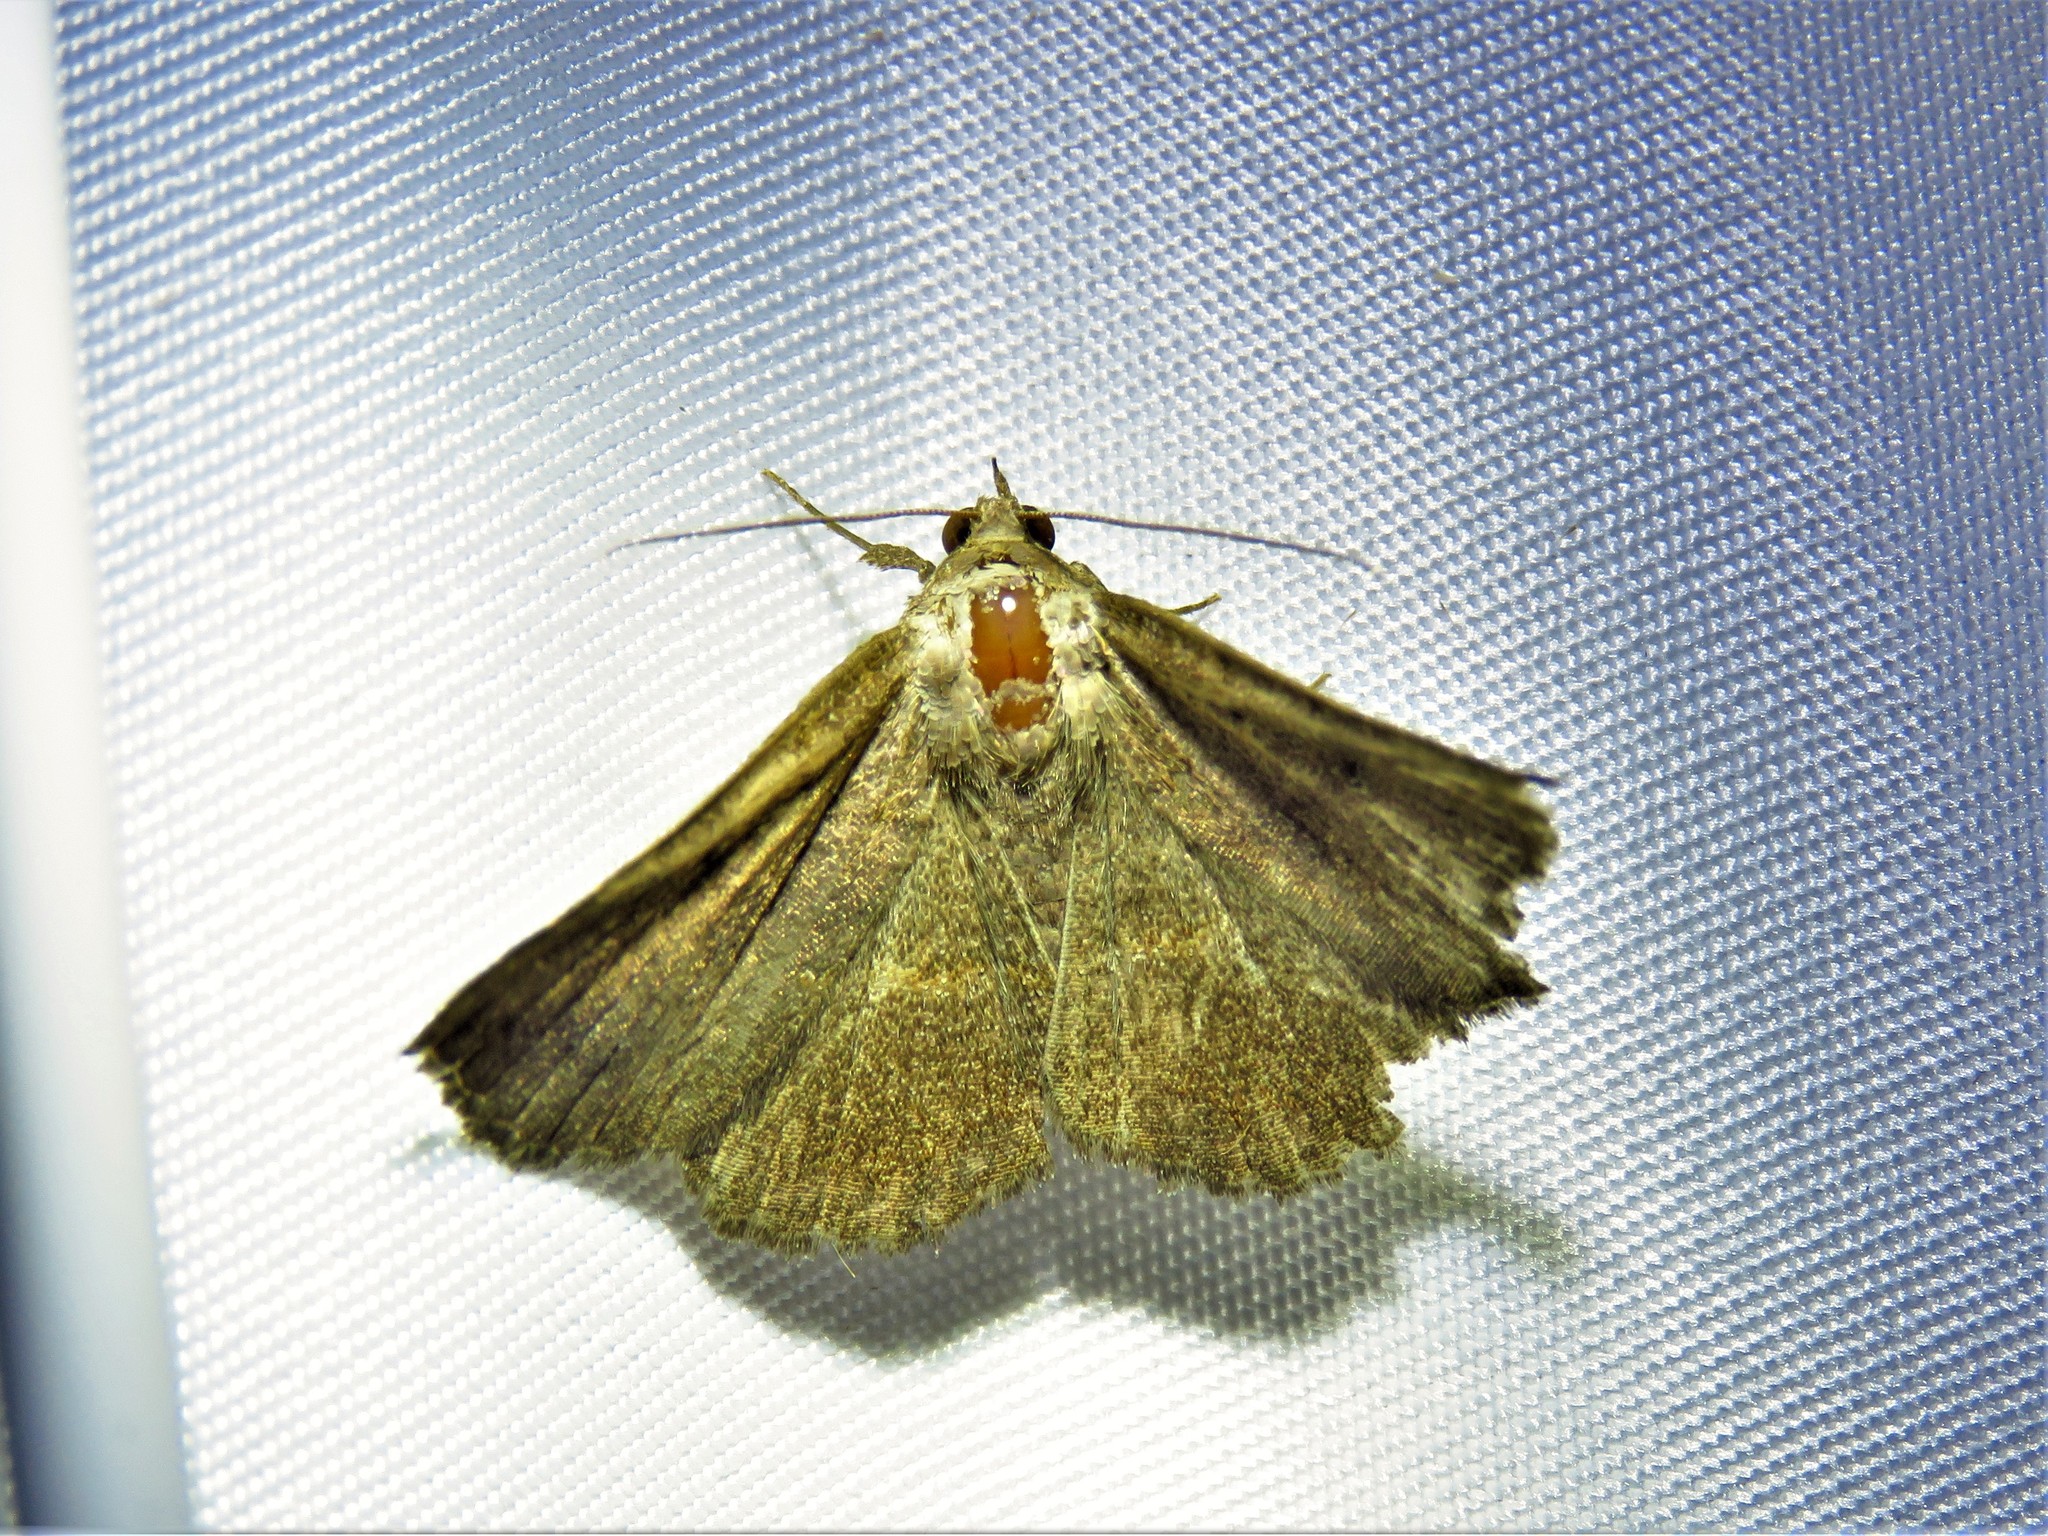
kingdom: Animalia
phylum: Arthropoda
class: Insecta
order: Lepidoptera
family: Erebidae
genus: Lesmone
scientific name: Lesmone detrahens
